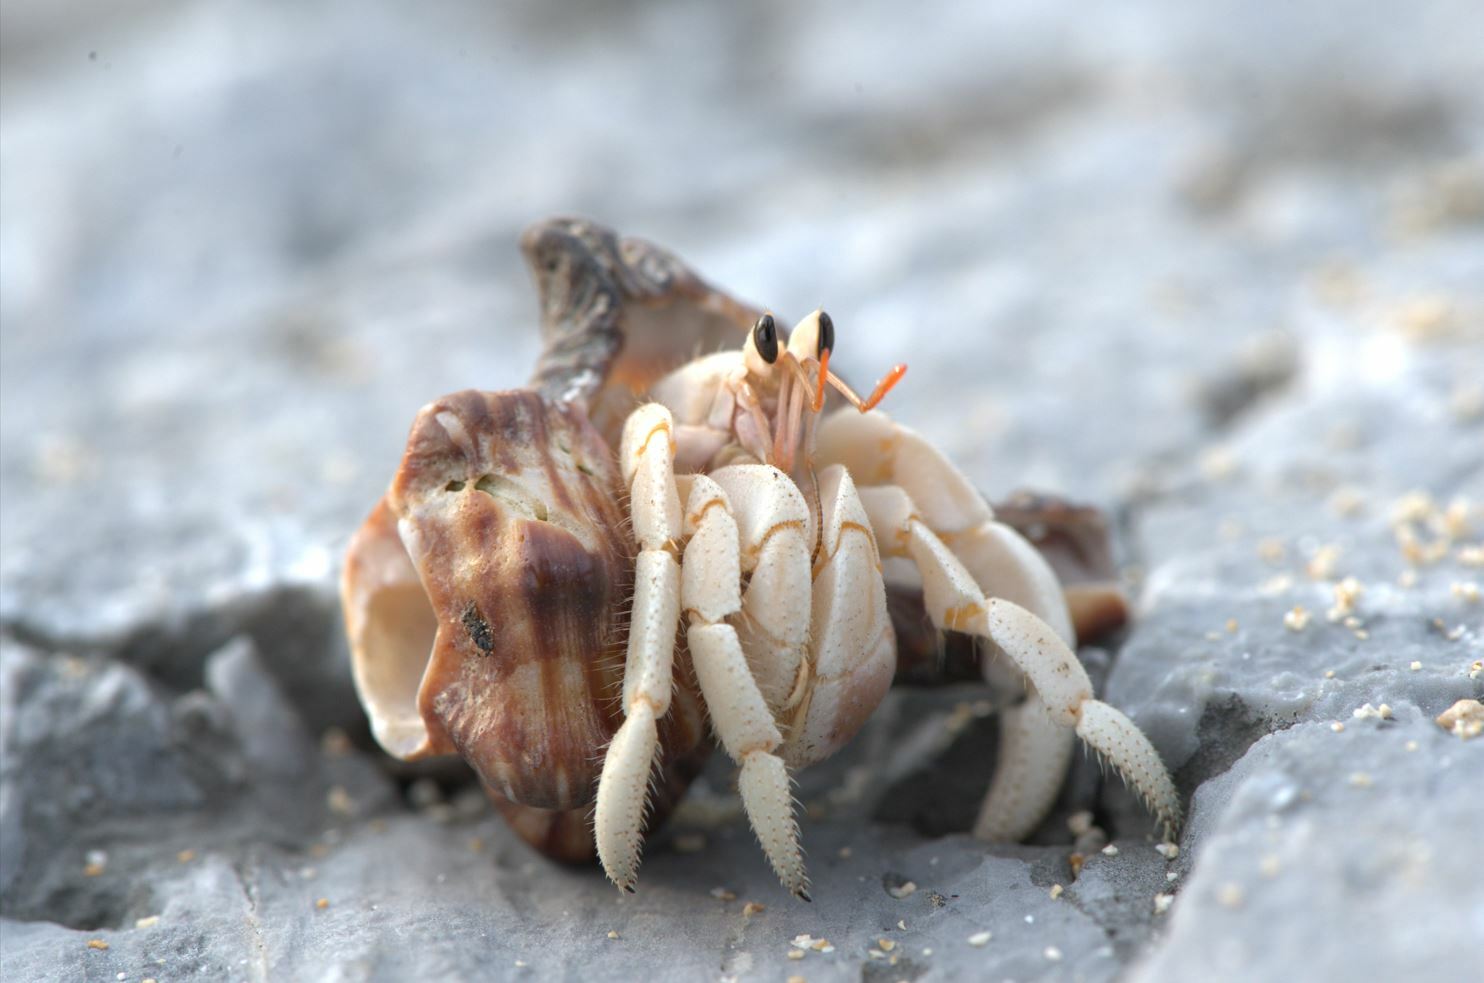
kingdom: Animalia
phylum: Arthropoda
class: Malacostraca
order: Decapoda
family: Coenobitidae
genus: Coenobita
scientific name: Coenobita purpureus
